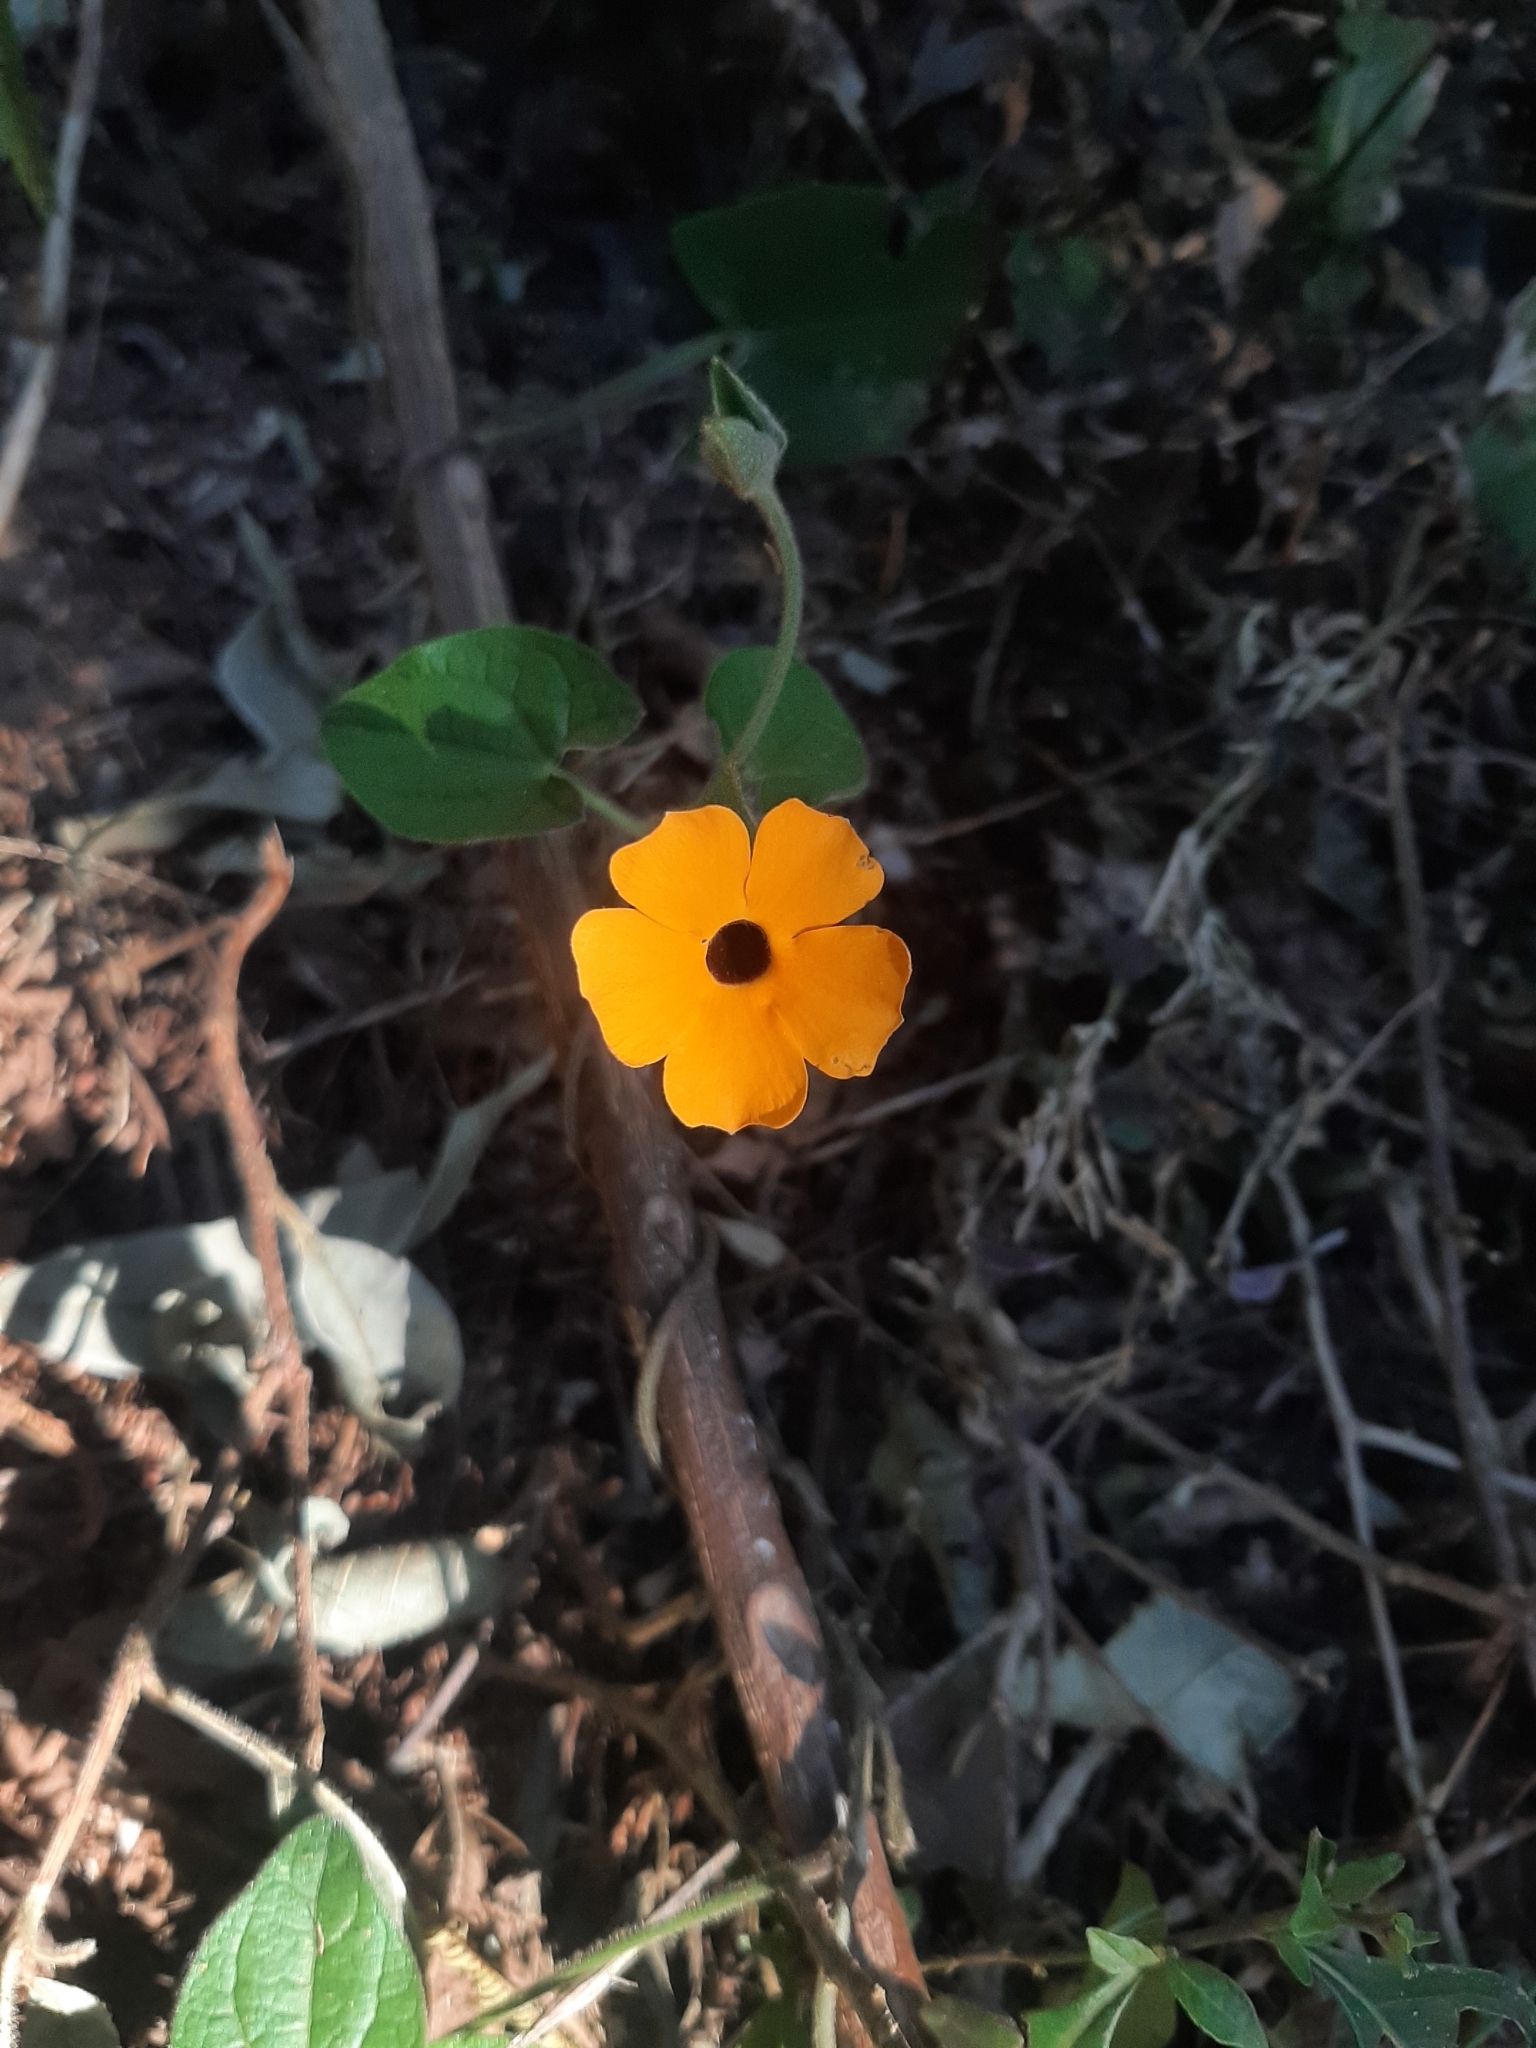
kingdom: Plantae
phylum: Tracheophyta
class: Magnoliopsida
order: Lamiales
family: Acanthaceae
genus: Thunbergia
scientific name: Thunbergia alata
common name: Blackeyed susan vine
